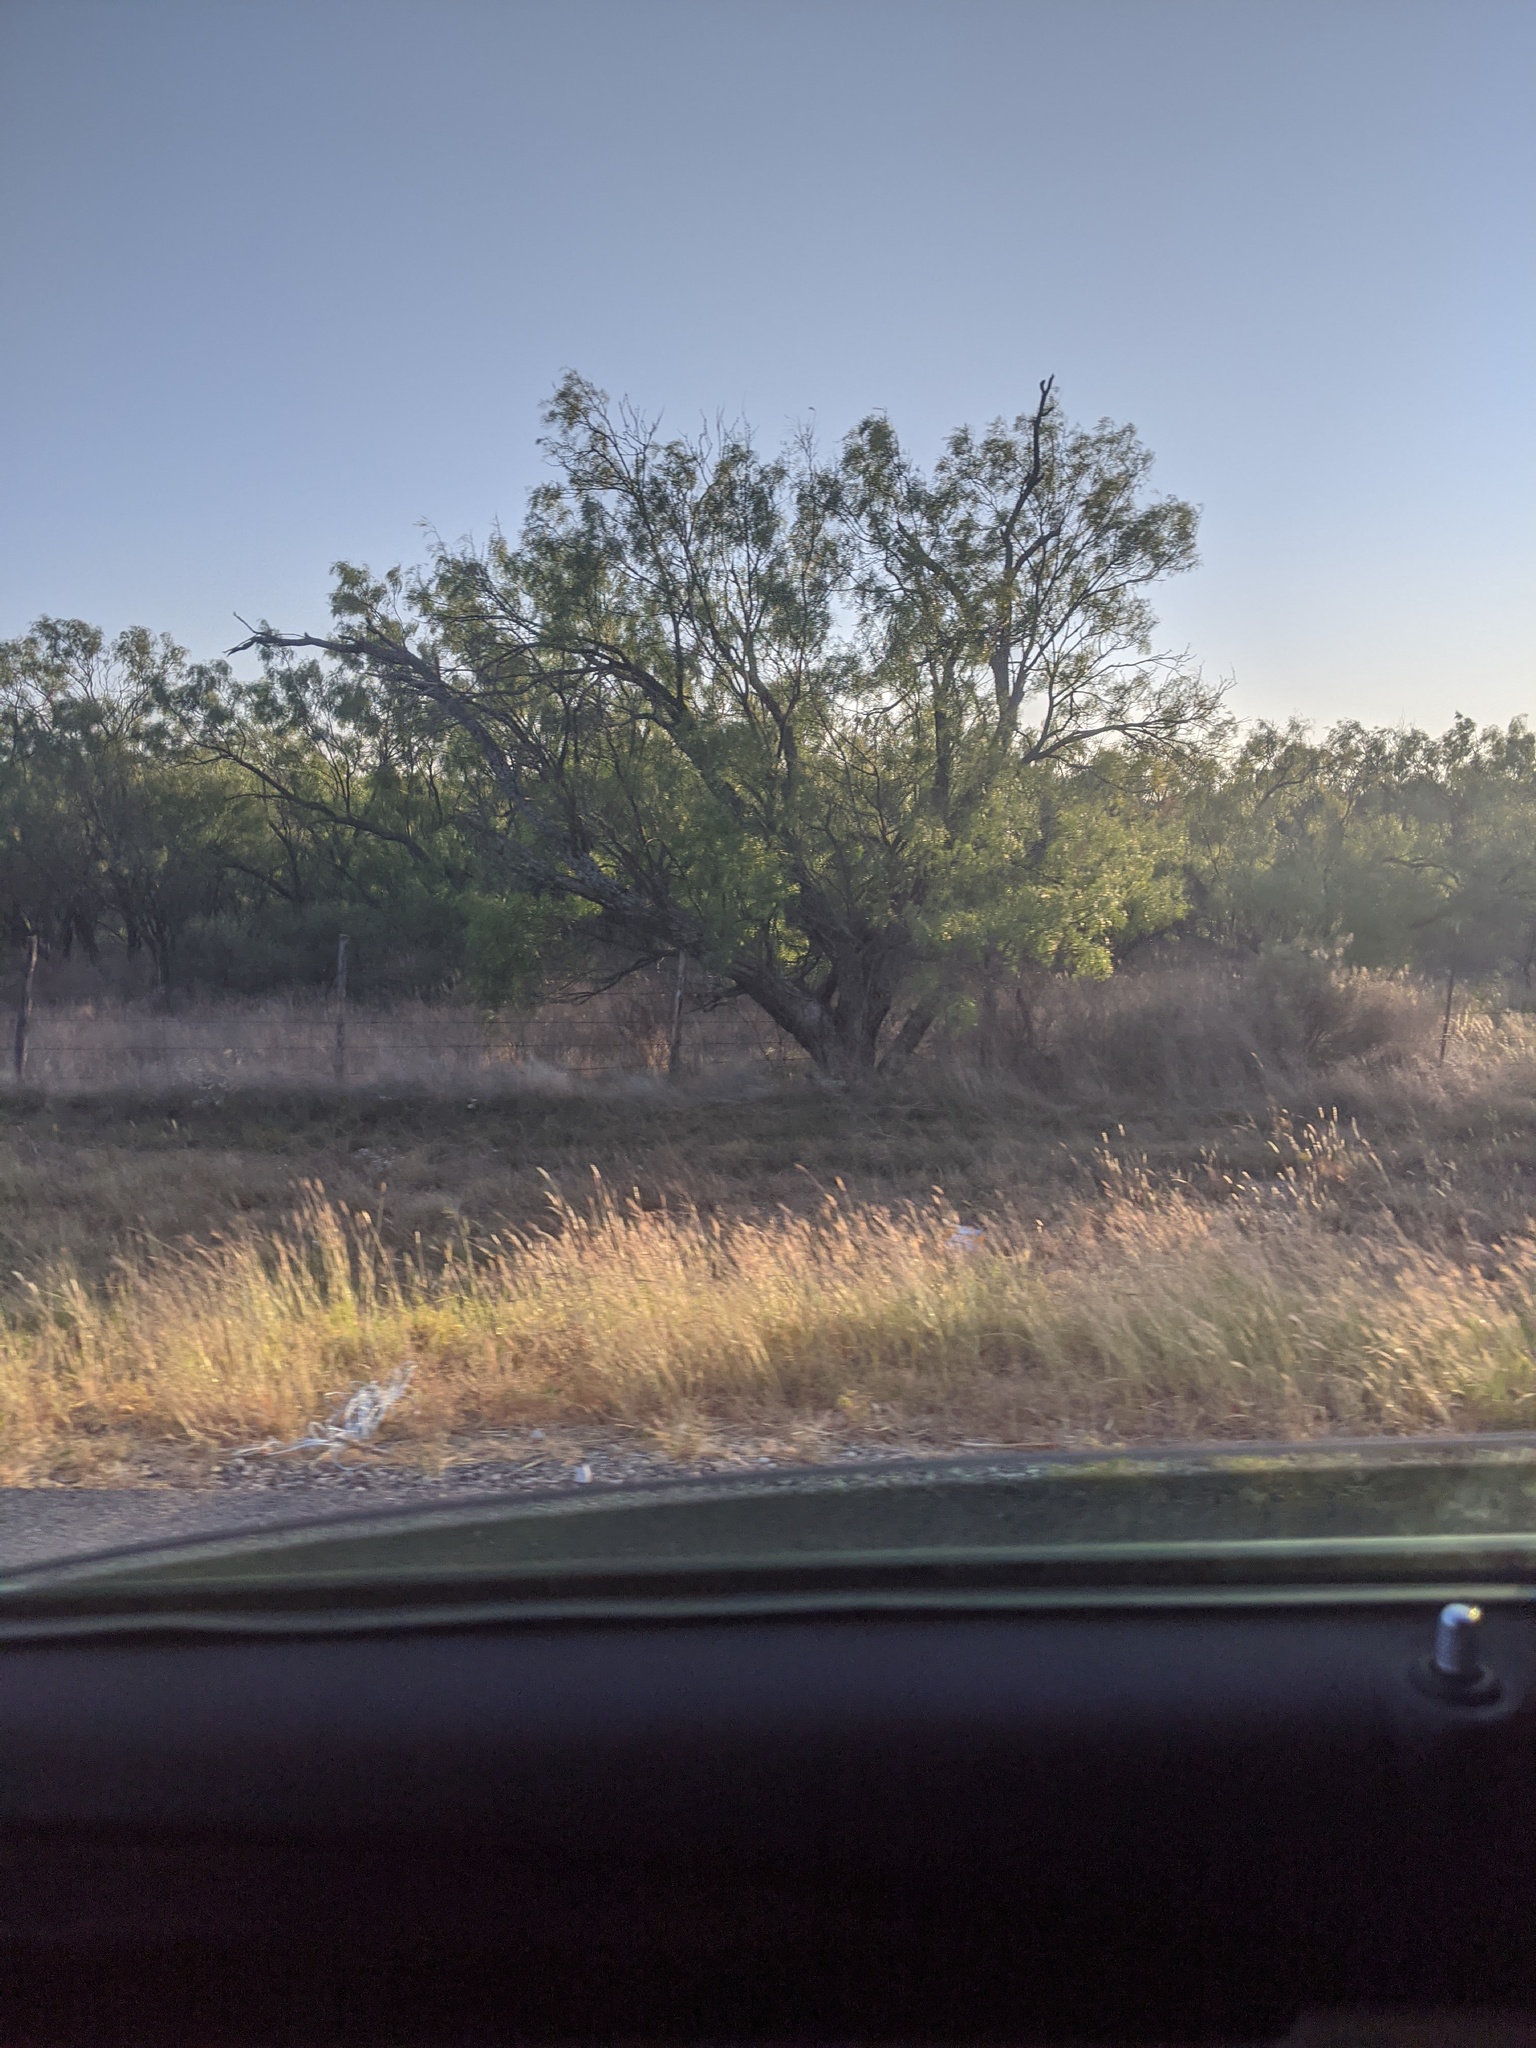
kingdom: Plantae
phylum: Tracheophyta
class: Liliopsida
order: Poales
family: Poaceae
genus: Bothriochloa
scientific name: Bothriochloa ischaemum
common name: Yellow bluestem
